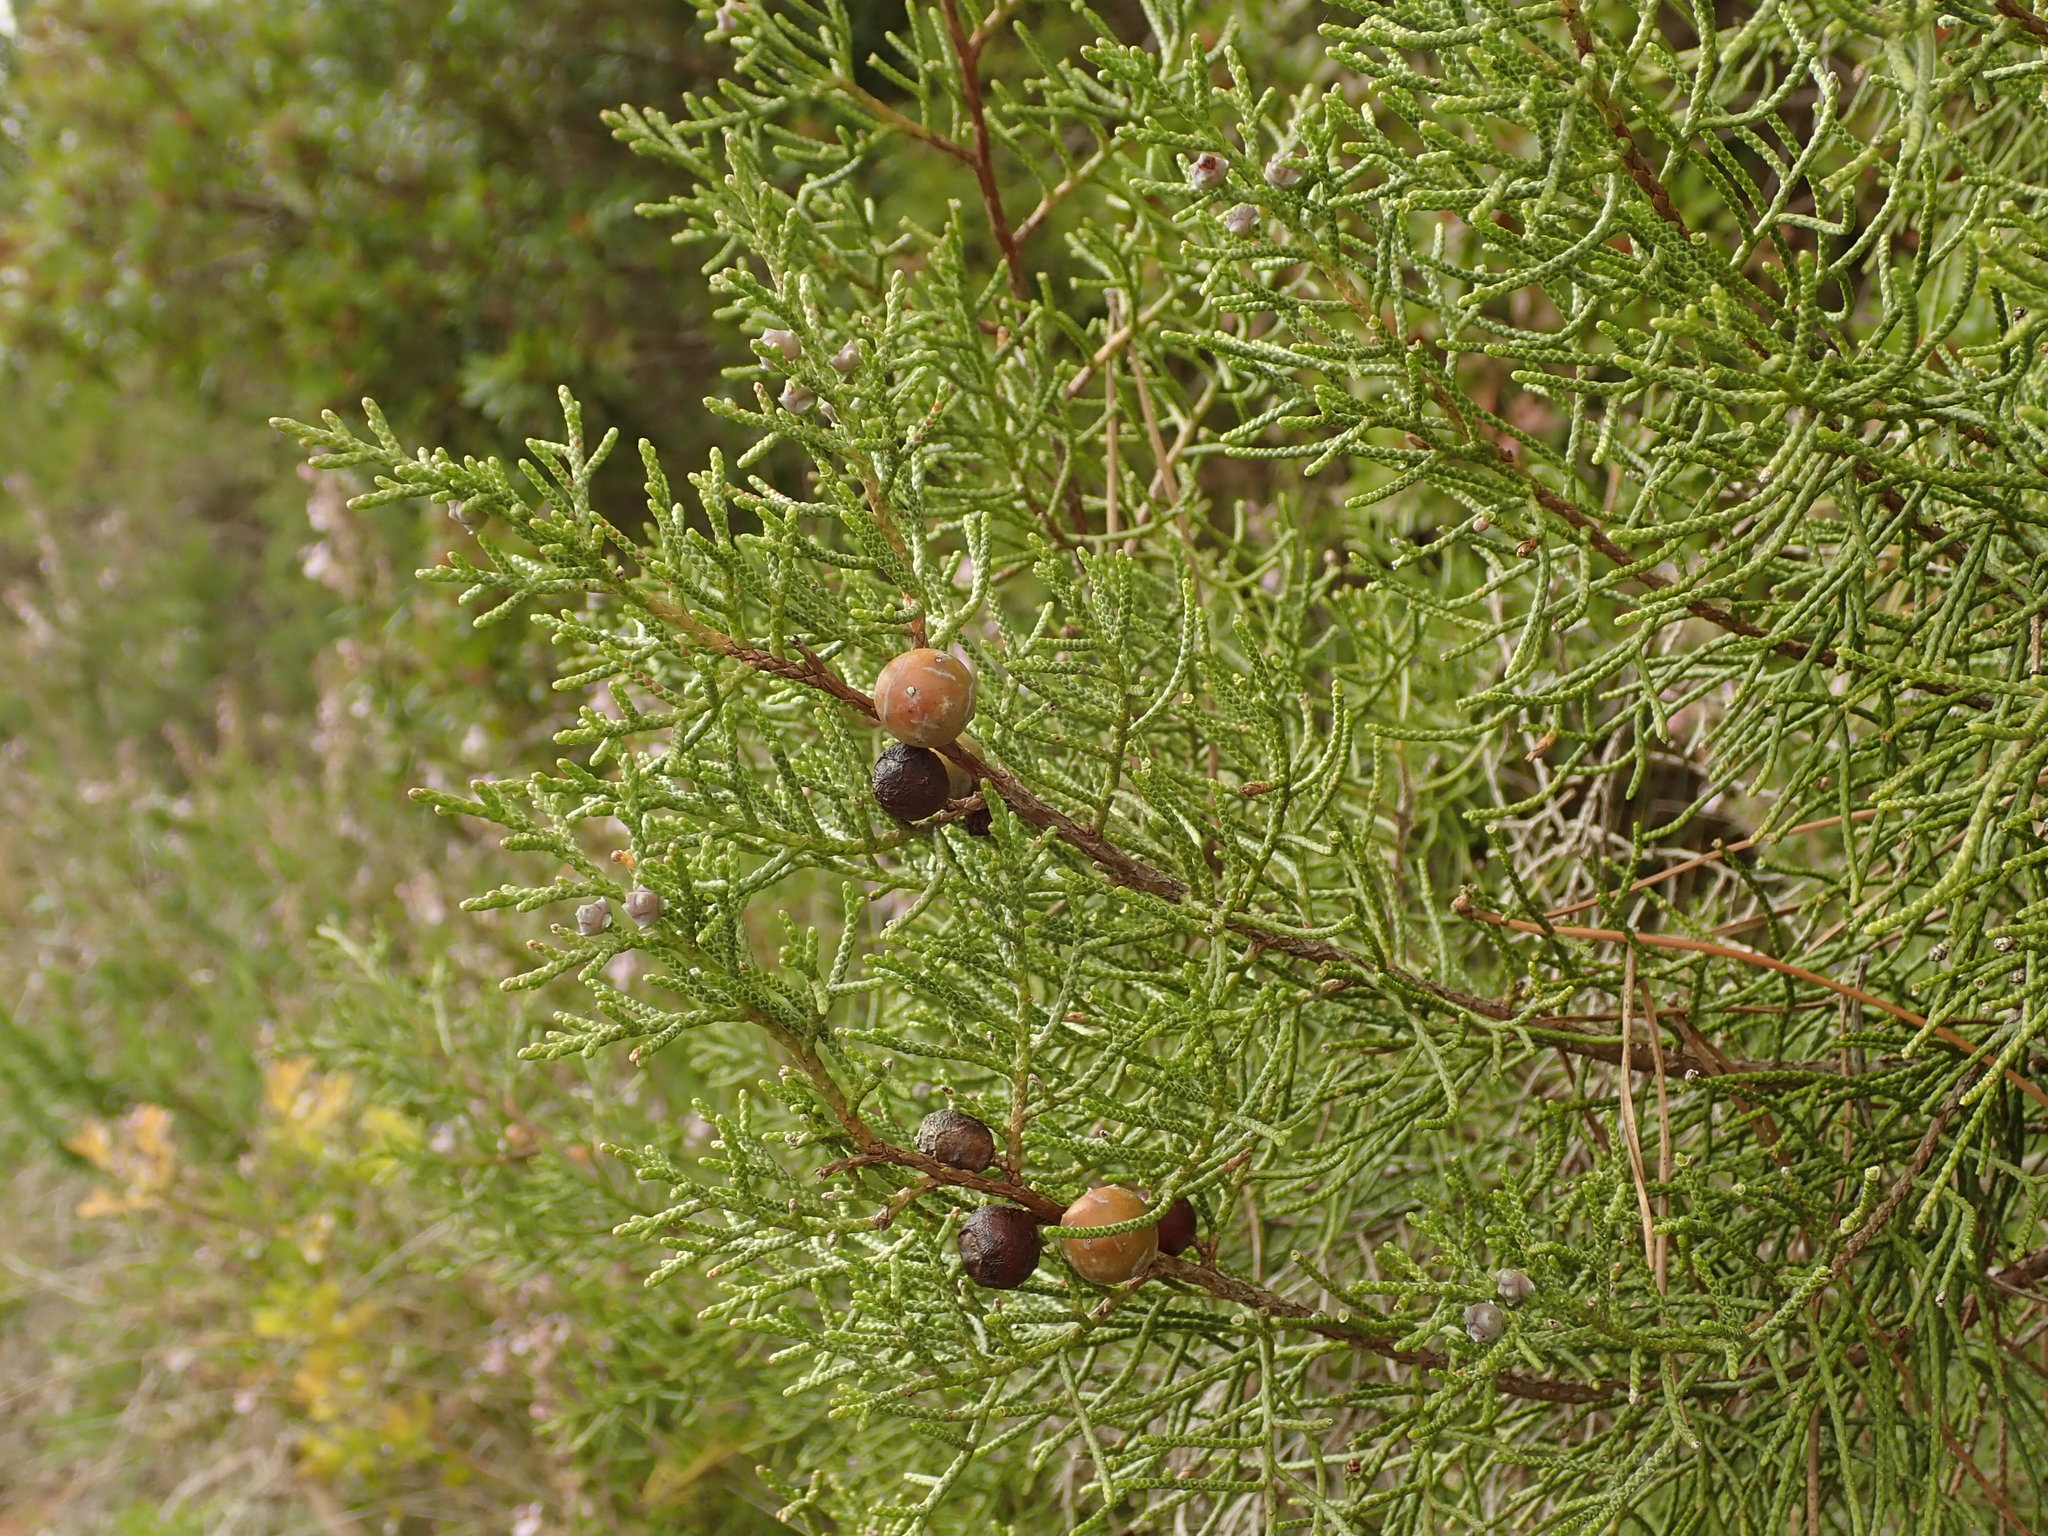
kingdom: Plantae
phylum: Tracheophyta
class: Pinopsida
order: Pinales
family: Cupressaceae
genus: Juniperus
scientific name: Juniperus phoenicea
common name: Phoenician juniper
